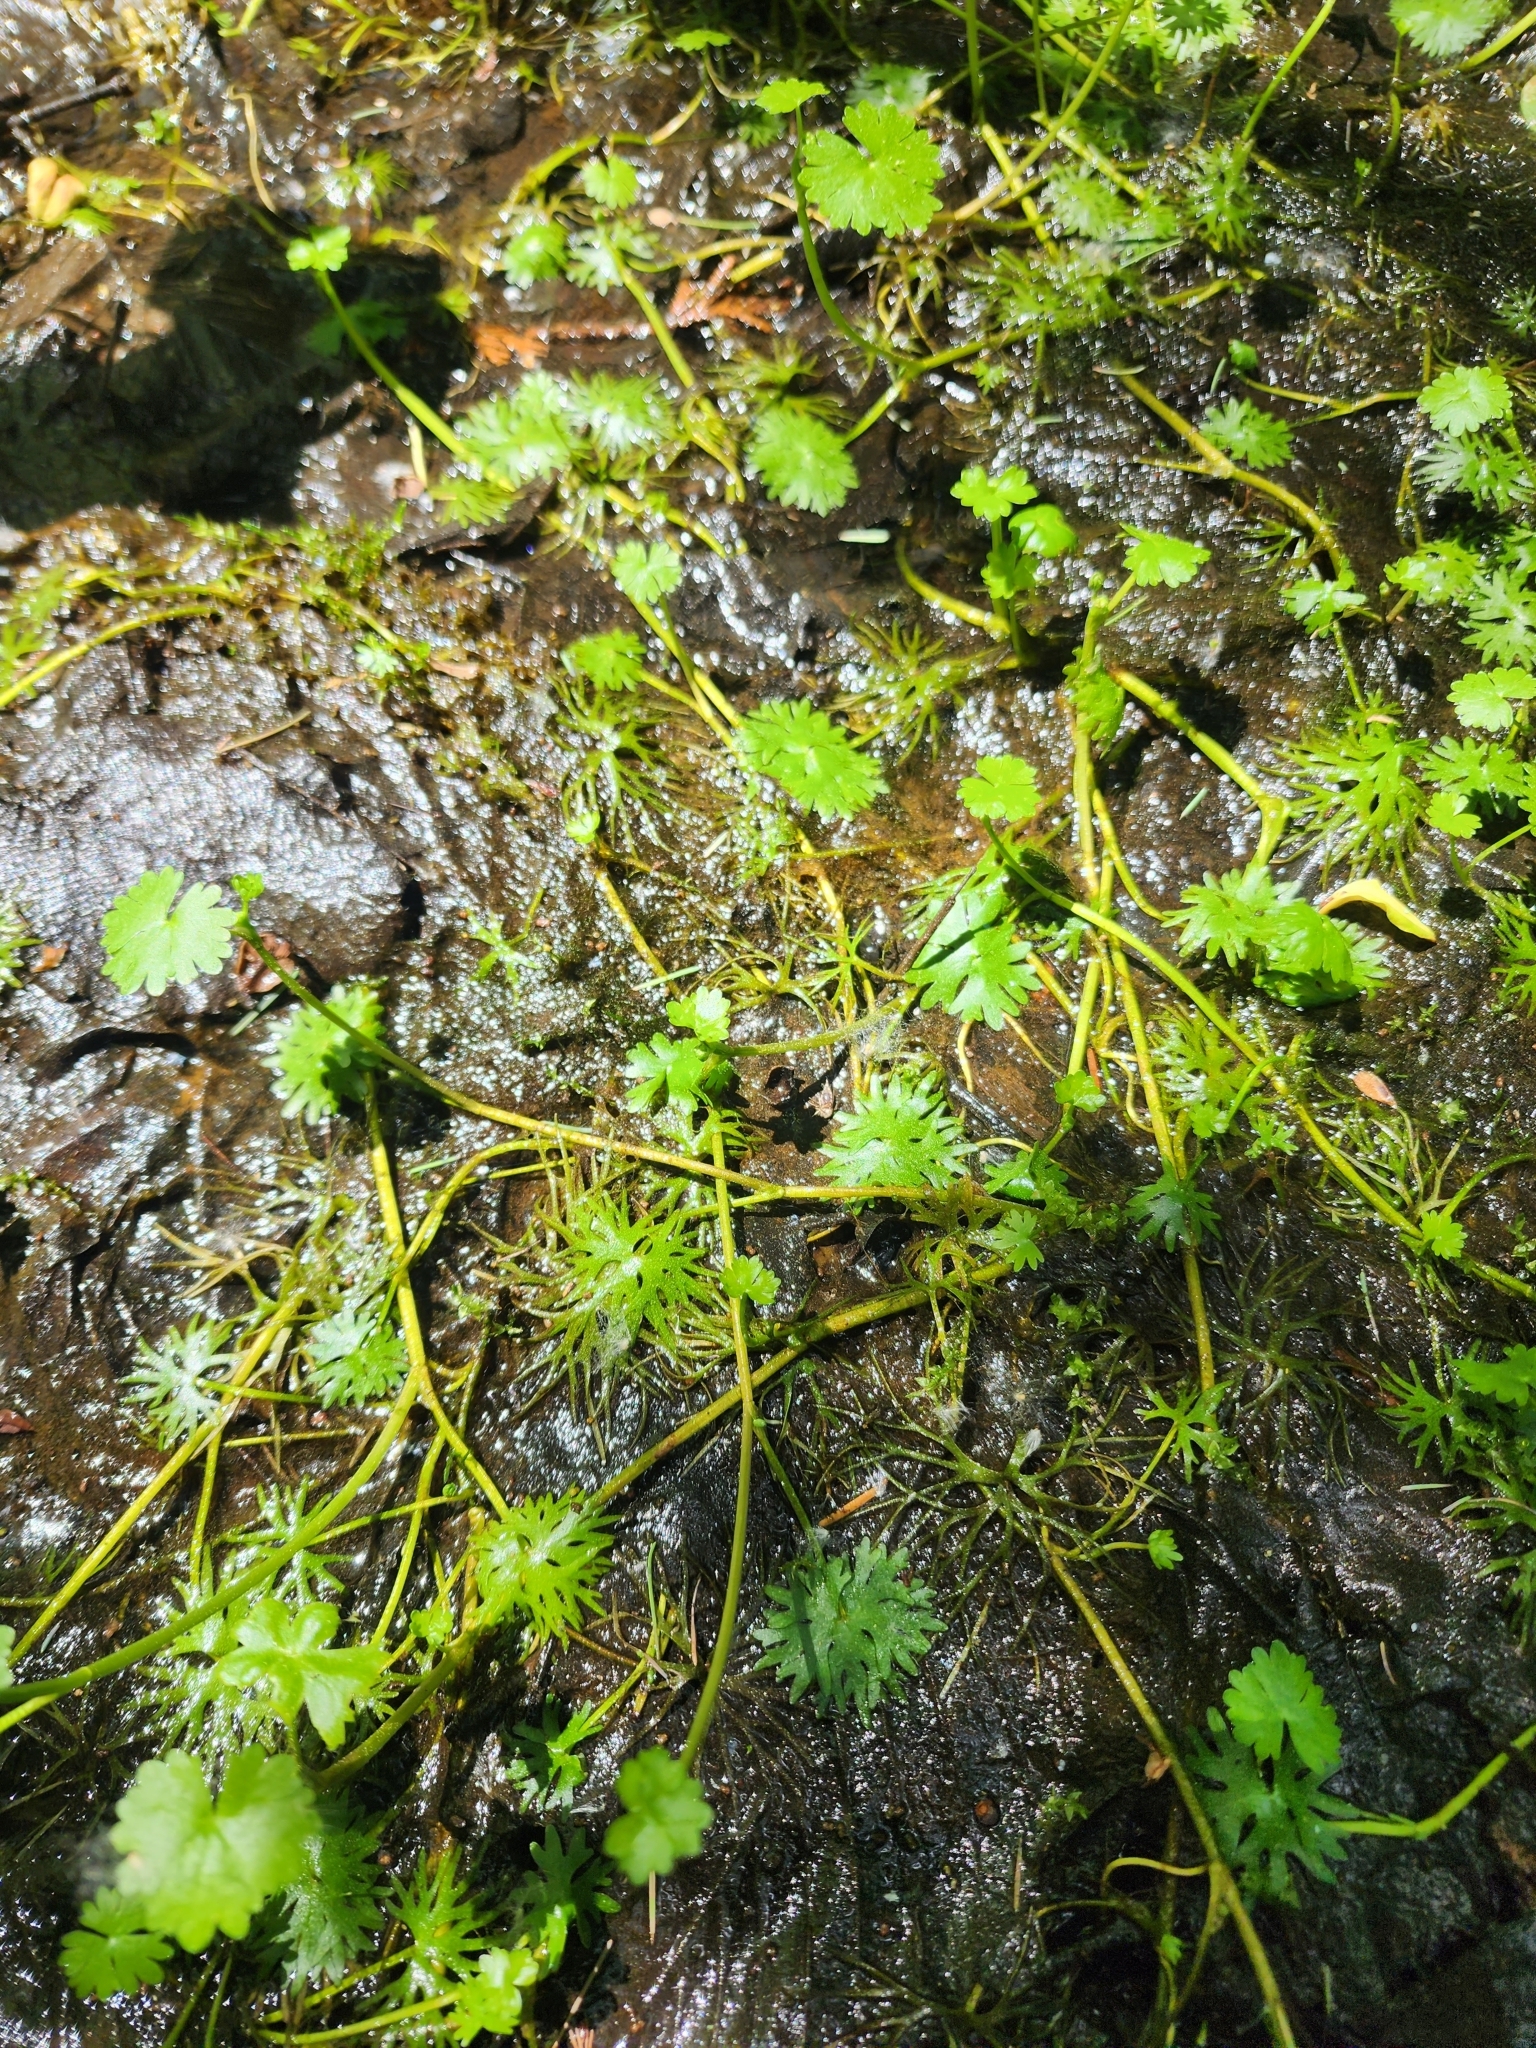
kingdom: Plantae
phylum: Tracheophyta
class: Magnoliopsida
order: Ranunculales
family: Ranunculaceae
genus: Ranunculus
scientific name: Ranunculus gmelinii
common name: Gmelin's buttercup
